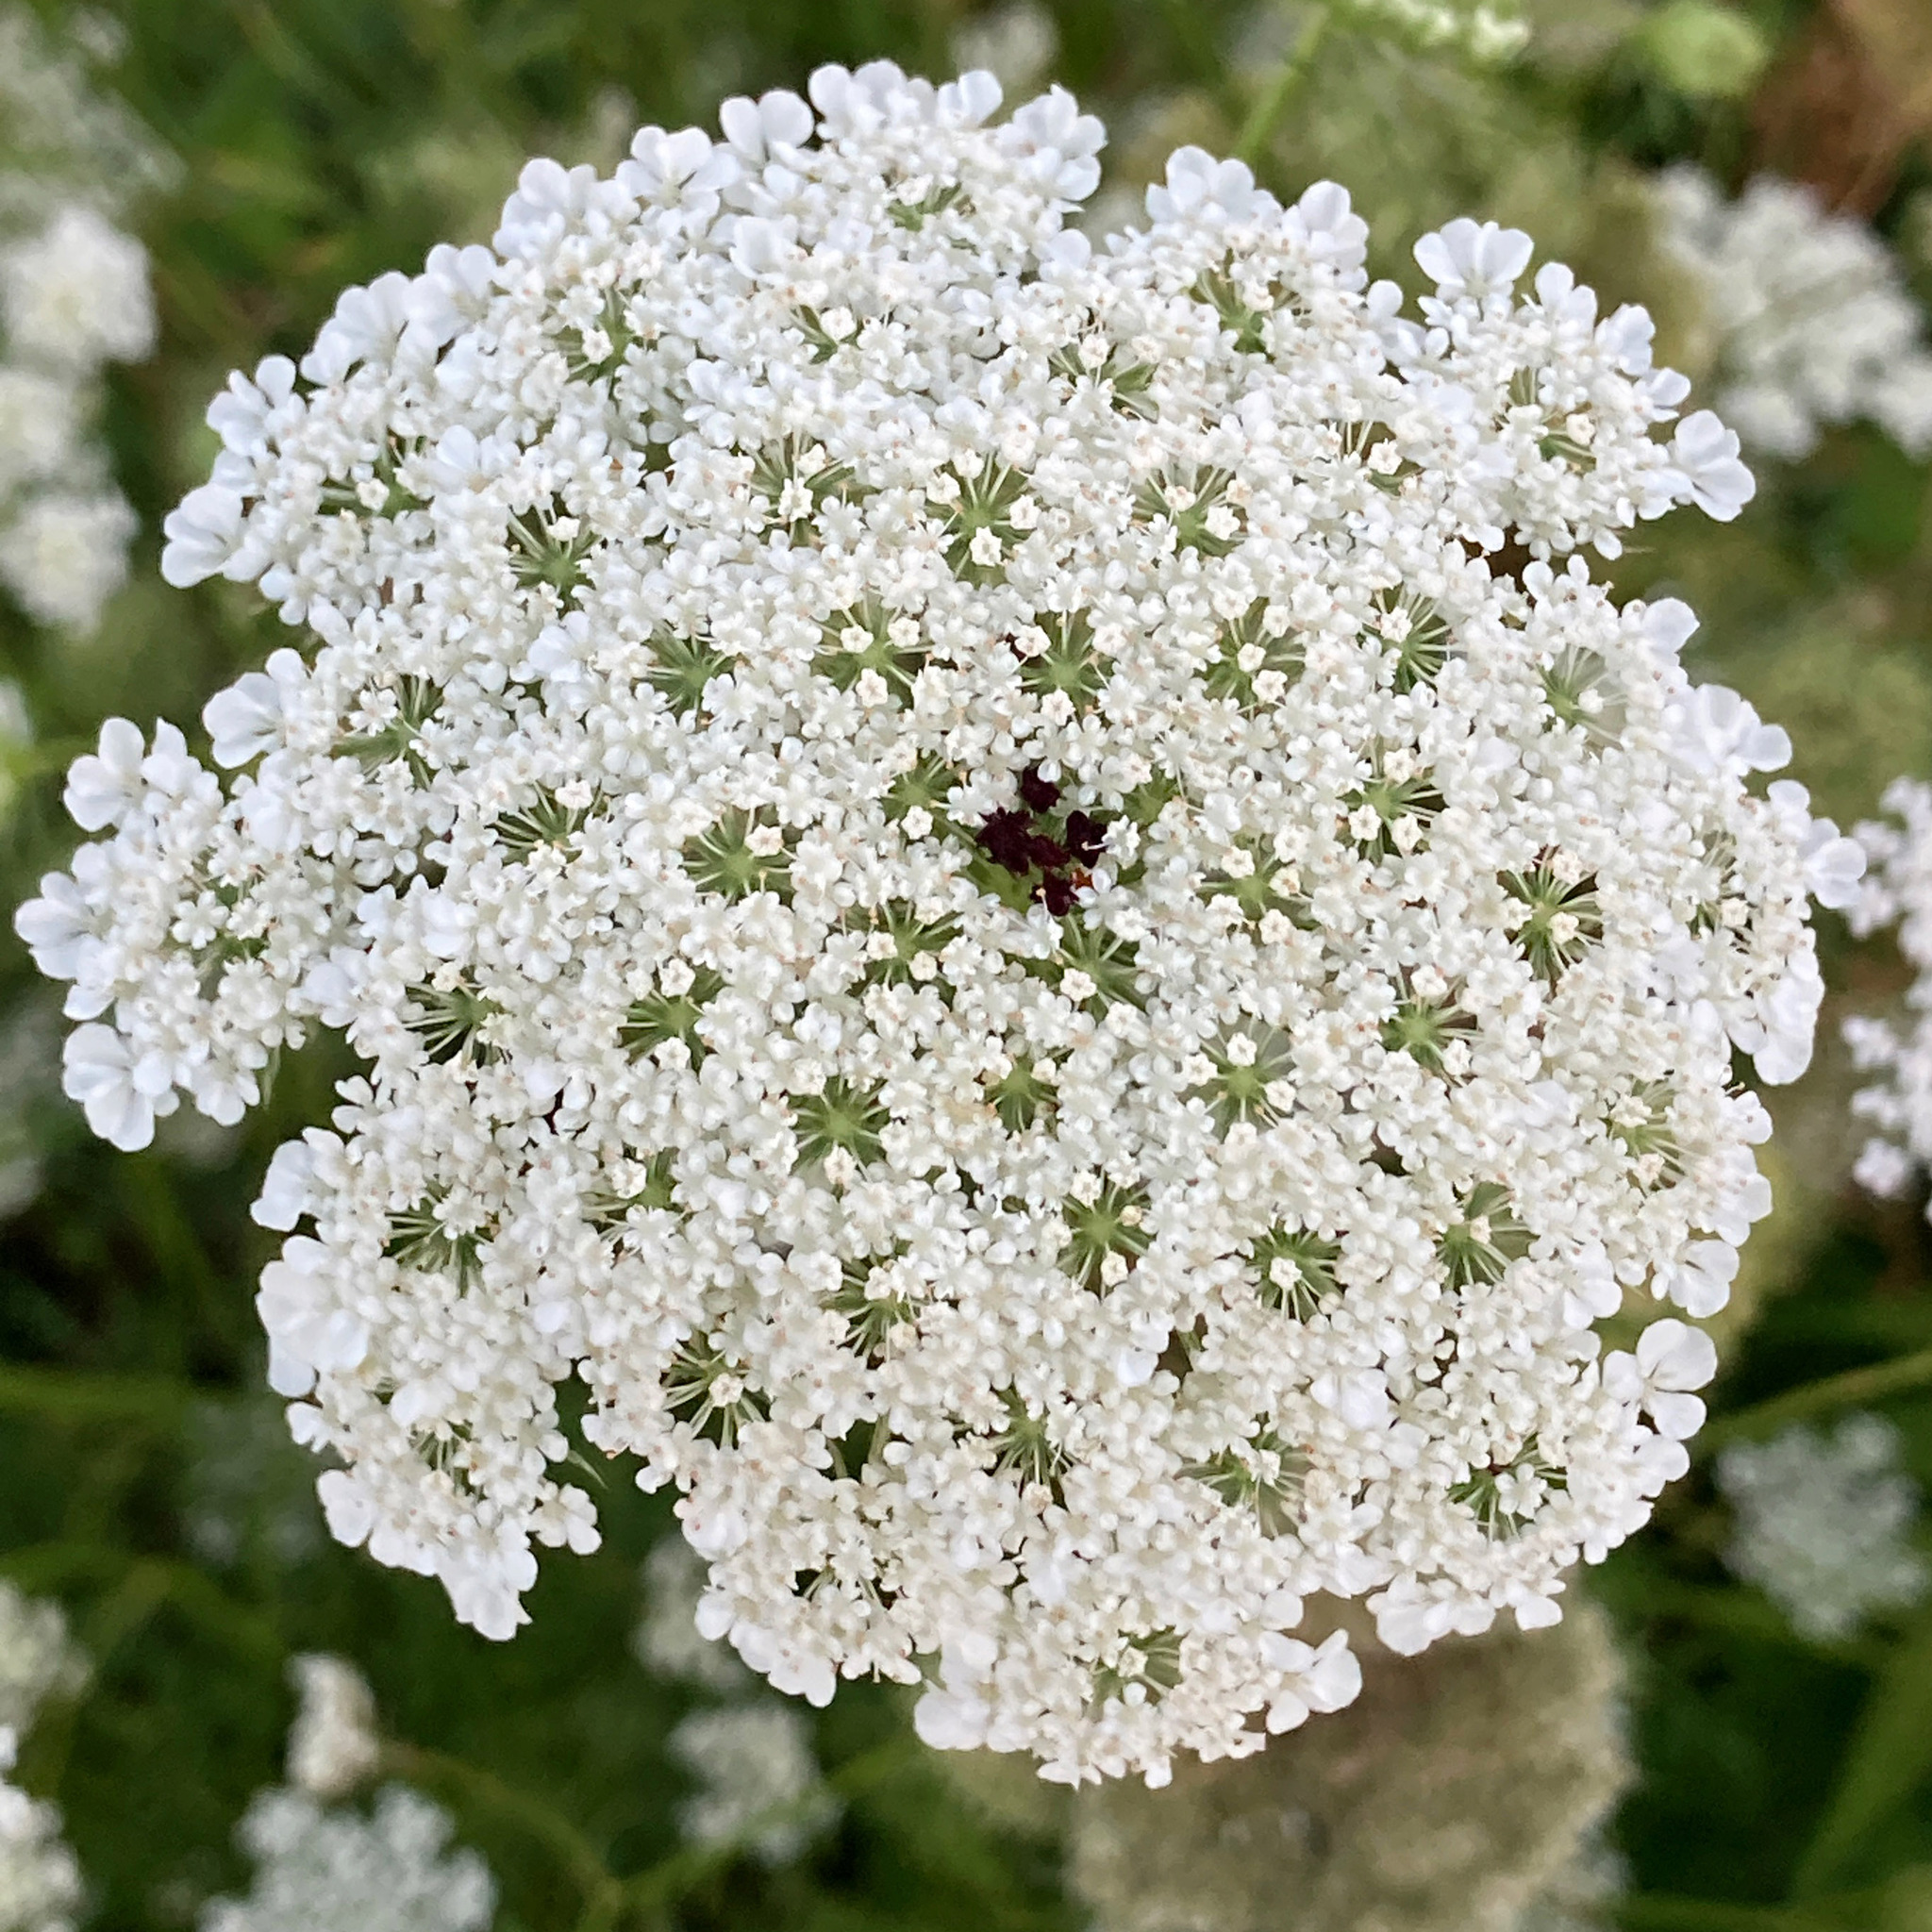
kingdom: Plantae
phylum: Tracheophyta
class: Magnoliopsida
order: Apiales
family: Apiaceae
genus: Daucus
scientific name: Daucus carota
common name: Wild carrot
